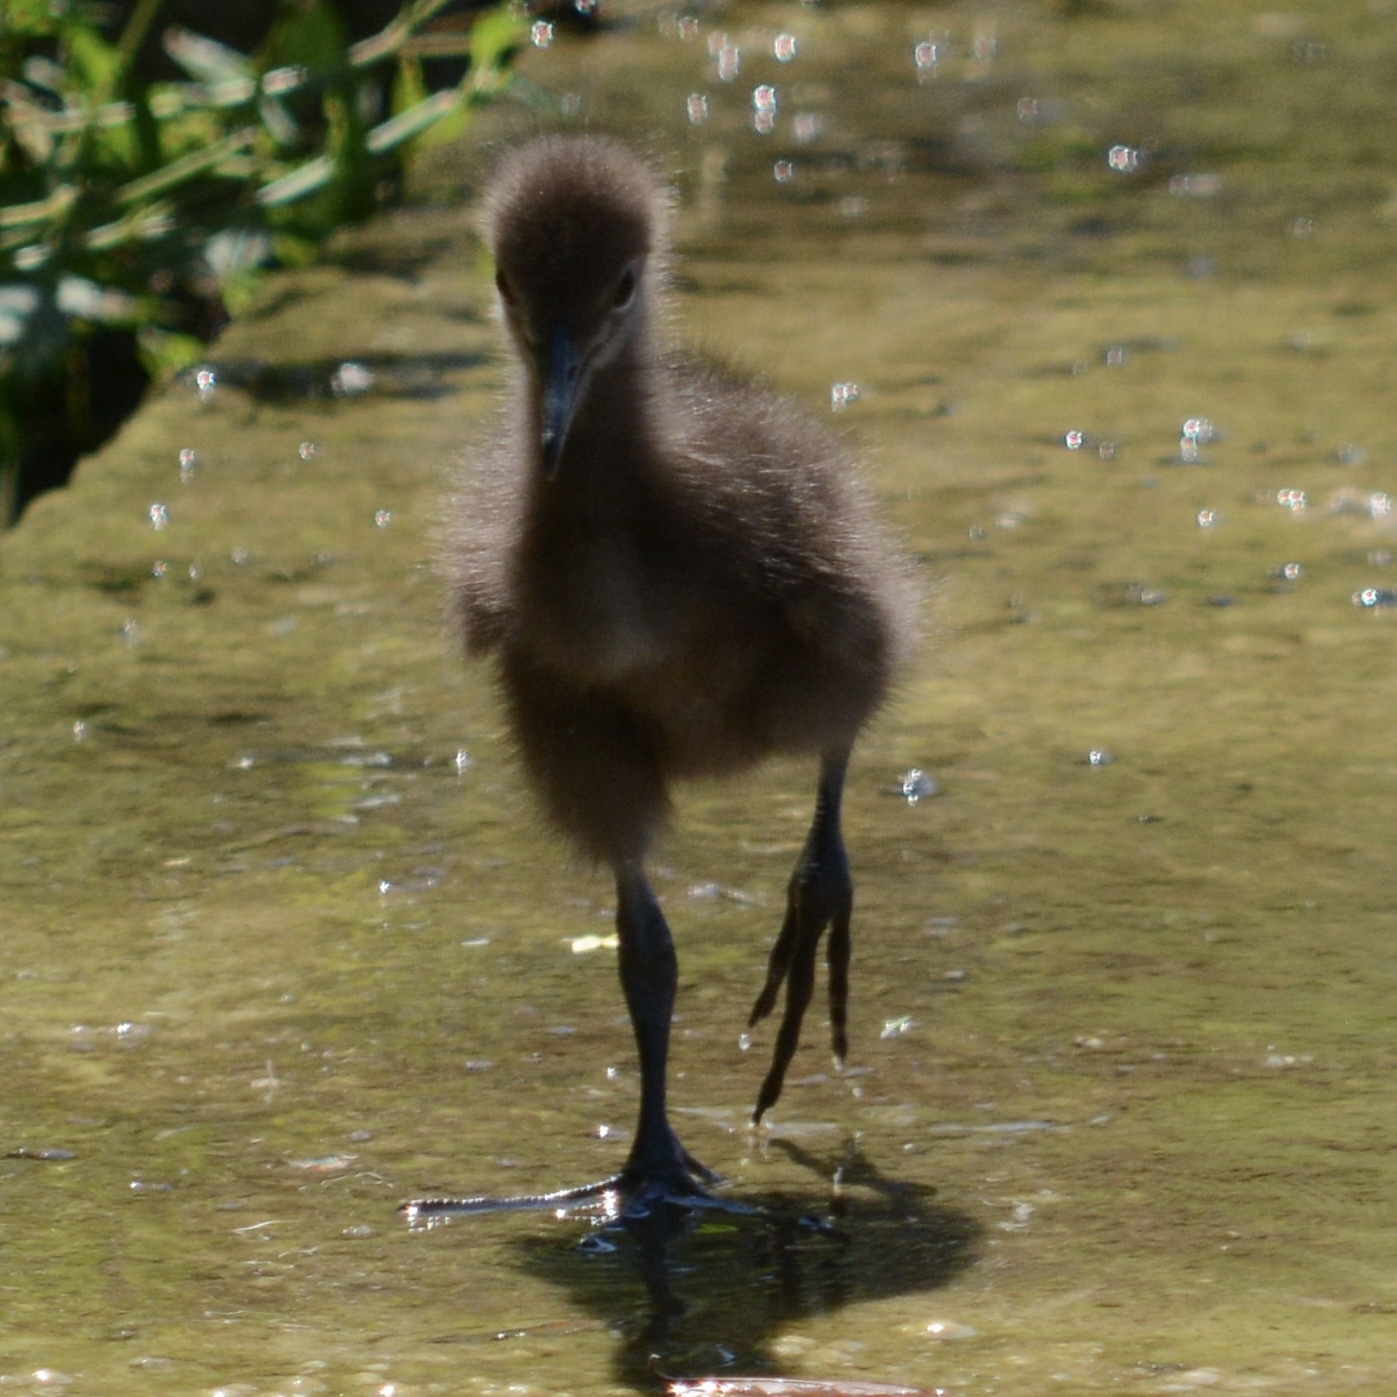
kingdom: Animalia
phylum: Chordata
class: Aves
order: Gruiformes
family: Aramidae
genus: Aramus
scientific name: Aramus guarauna
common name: Limpkin
